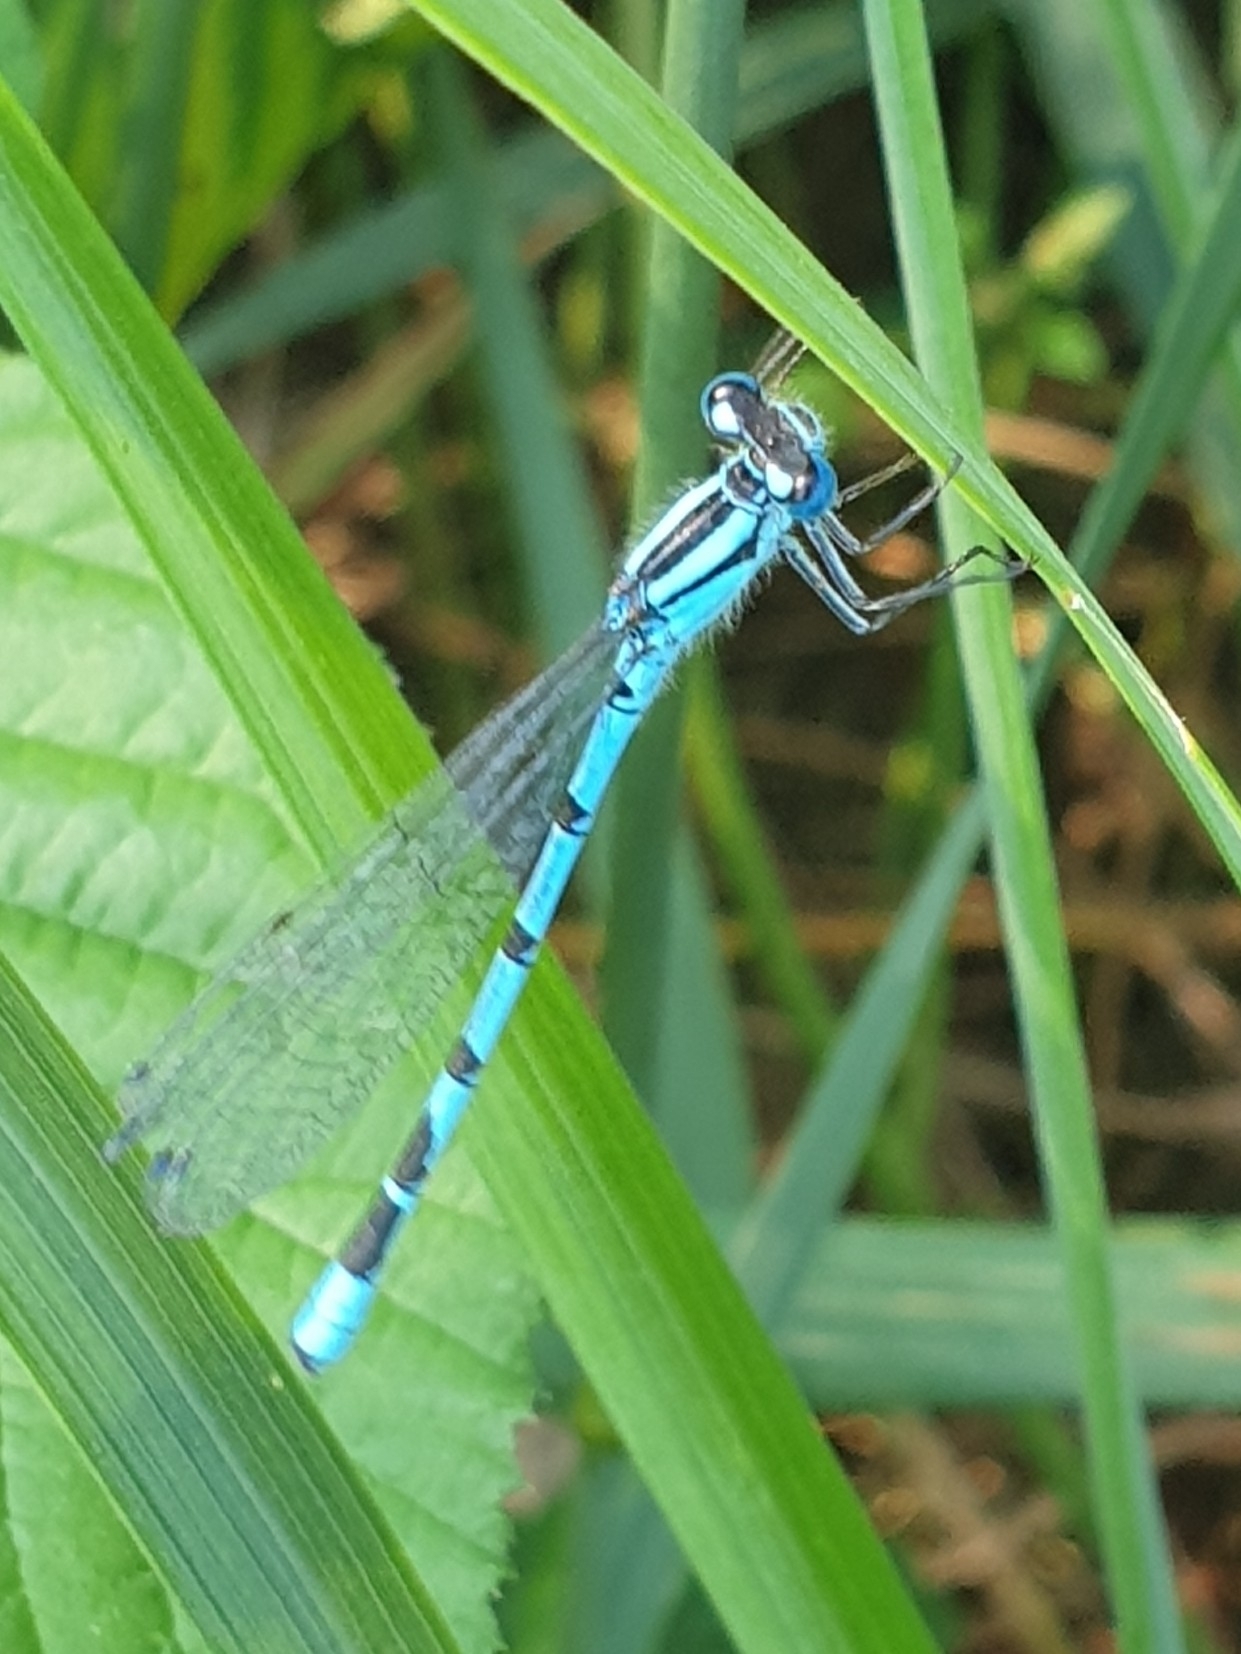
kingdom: Animalia
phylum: Arthropoda
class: Insecta
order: Odonata
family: Coenagrionidae
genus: Enallagma
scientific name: Enallagma cyathigerum
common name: Common blue damselfly
